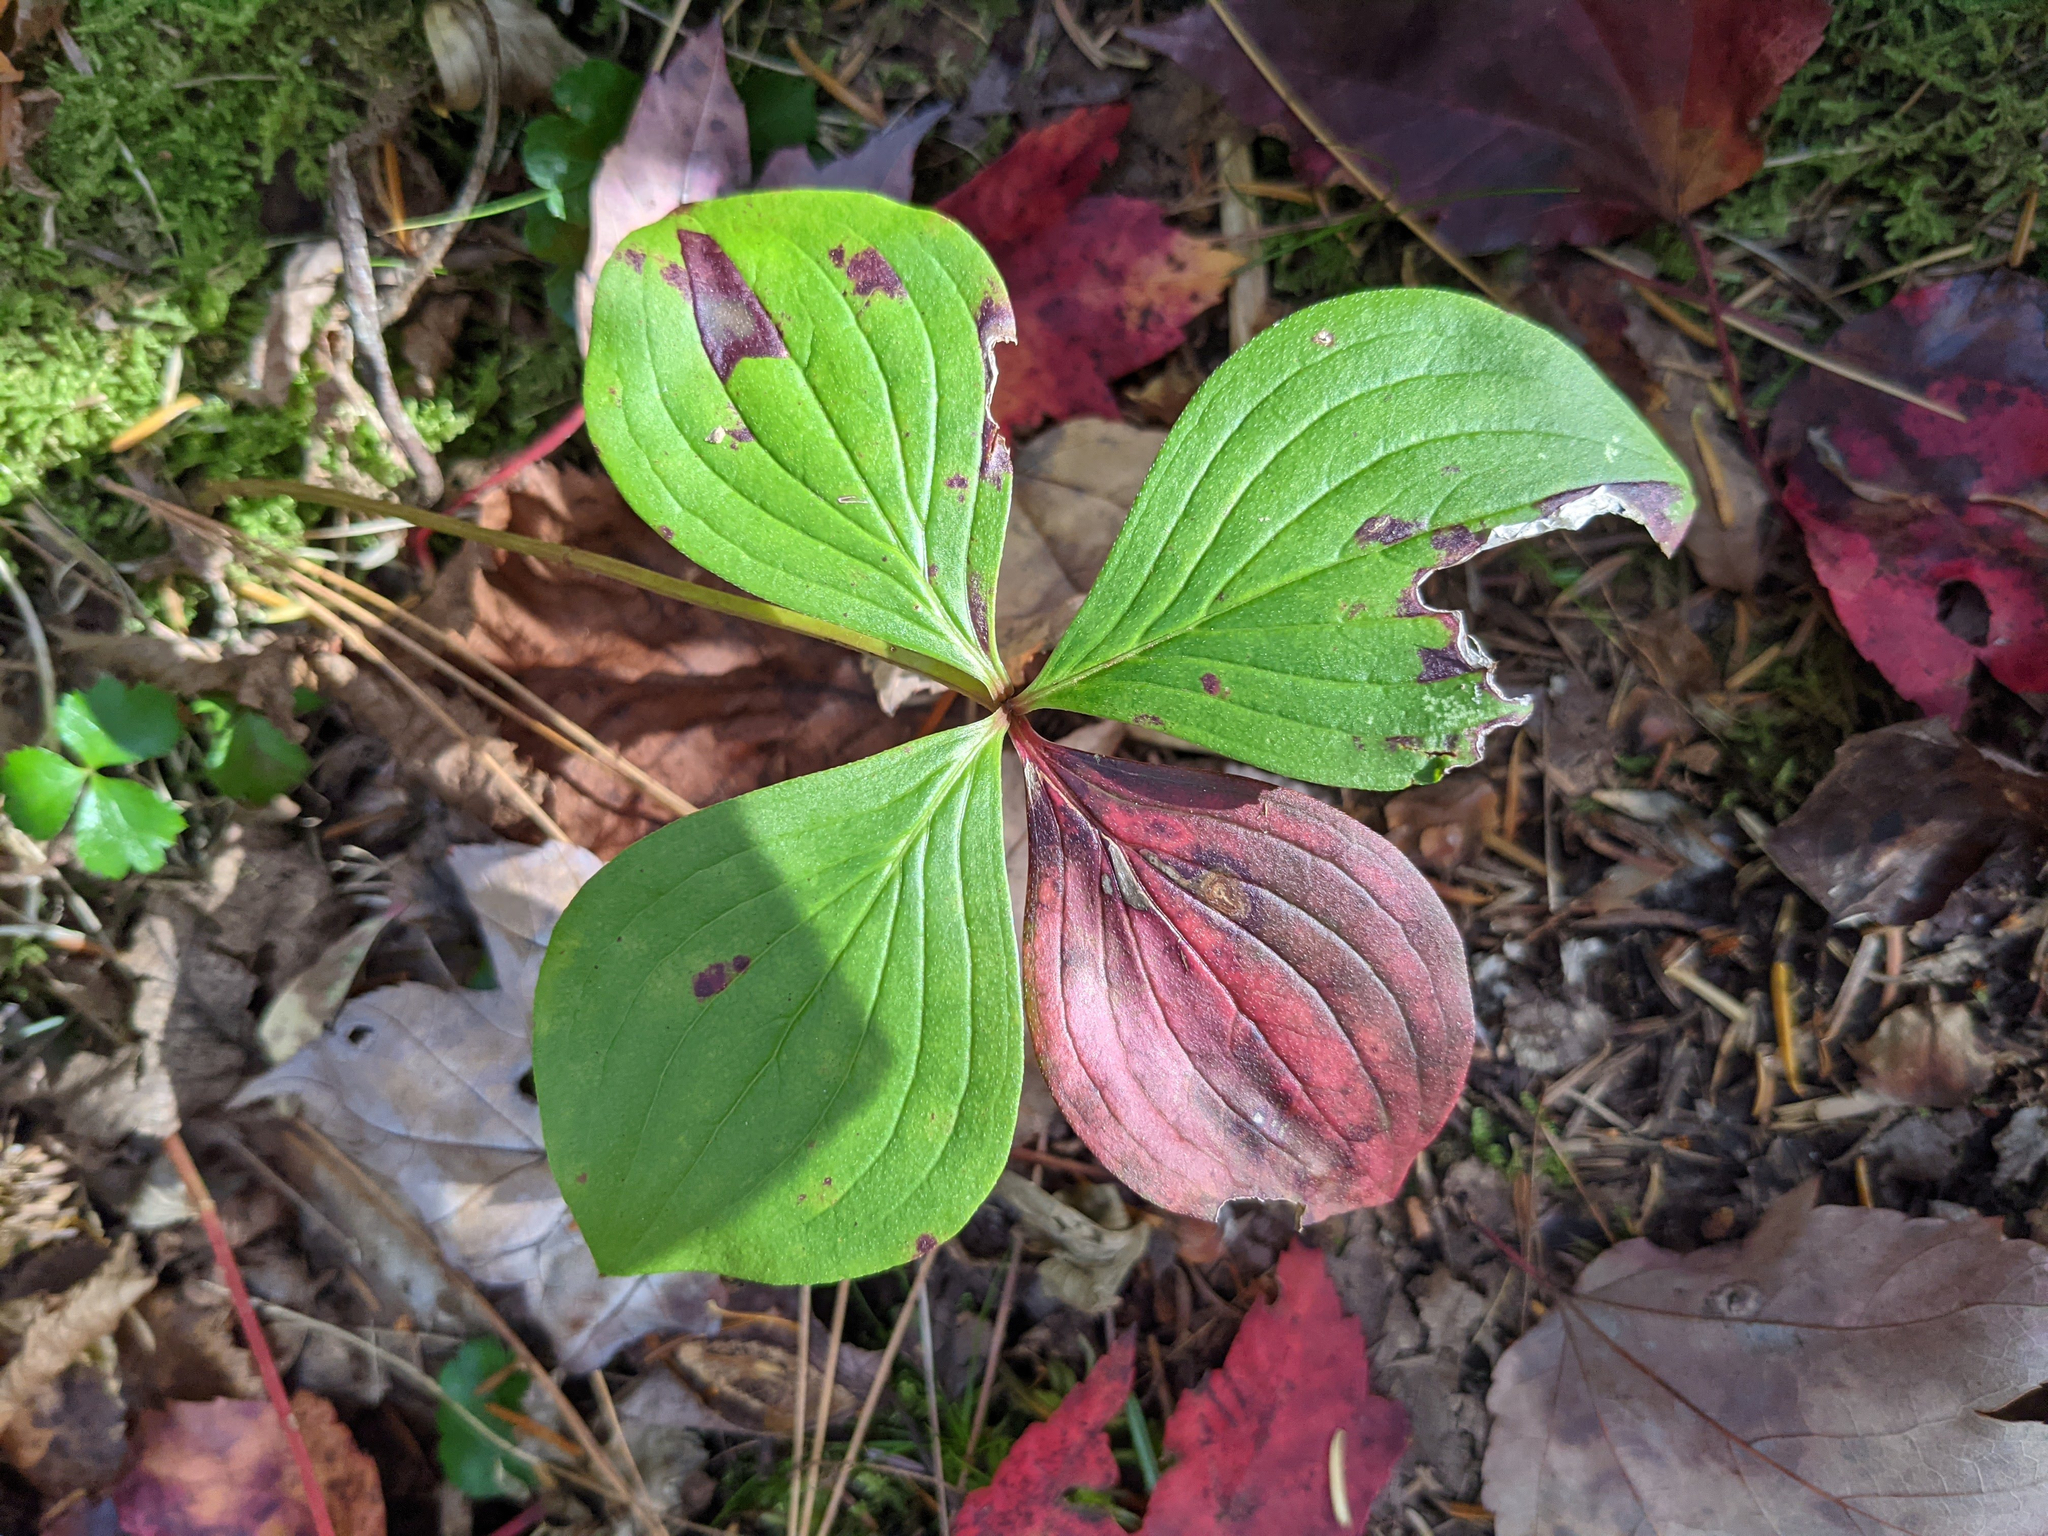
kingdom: Plantae
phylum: Tracheophyta
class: Magnoliopsida
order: Cornales
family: Cornaceae
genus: Cornus
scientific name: Cornus canadensis
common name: Creeping dogwood
